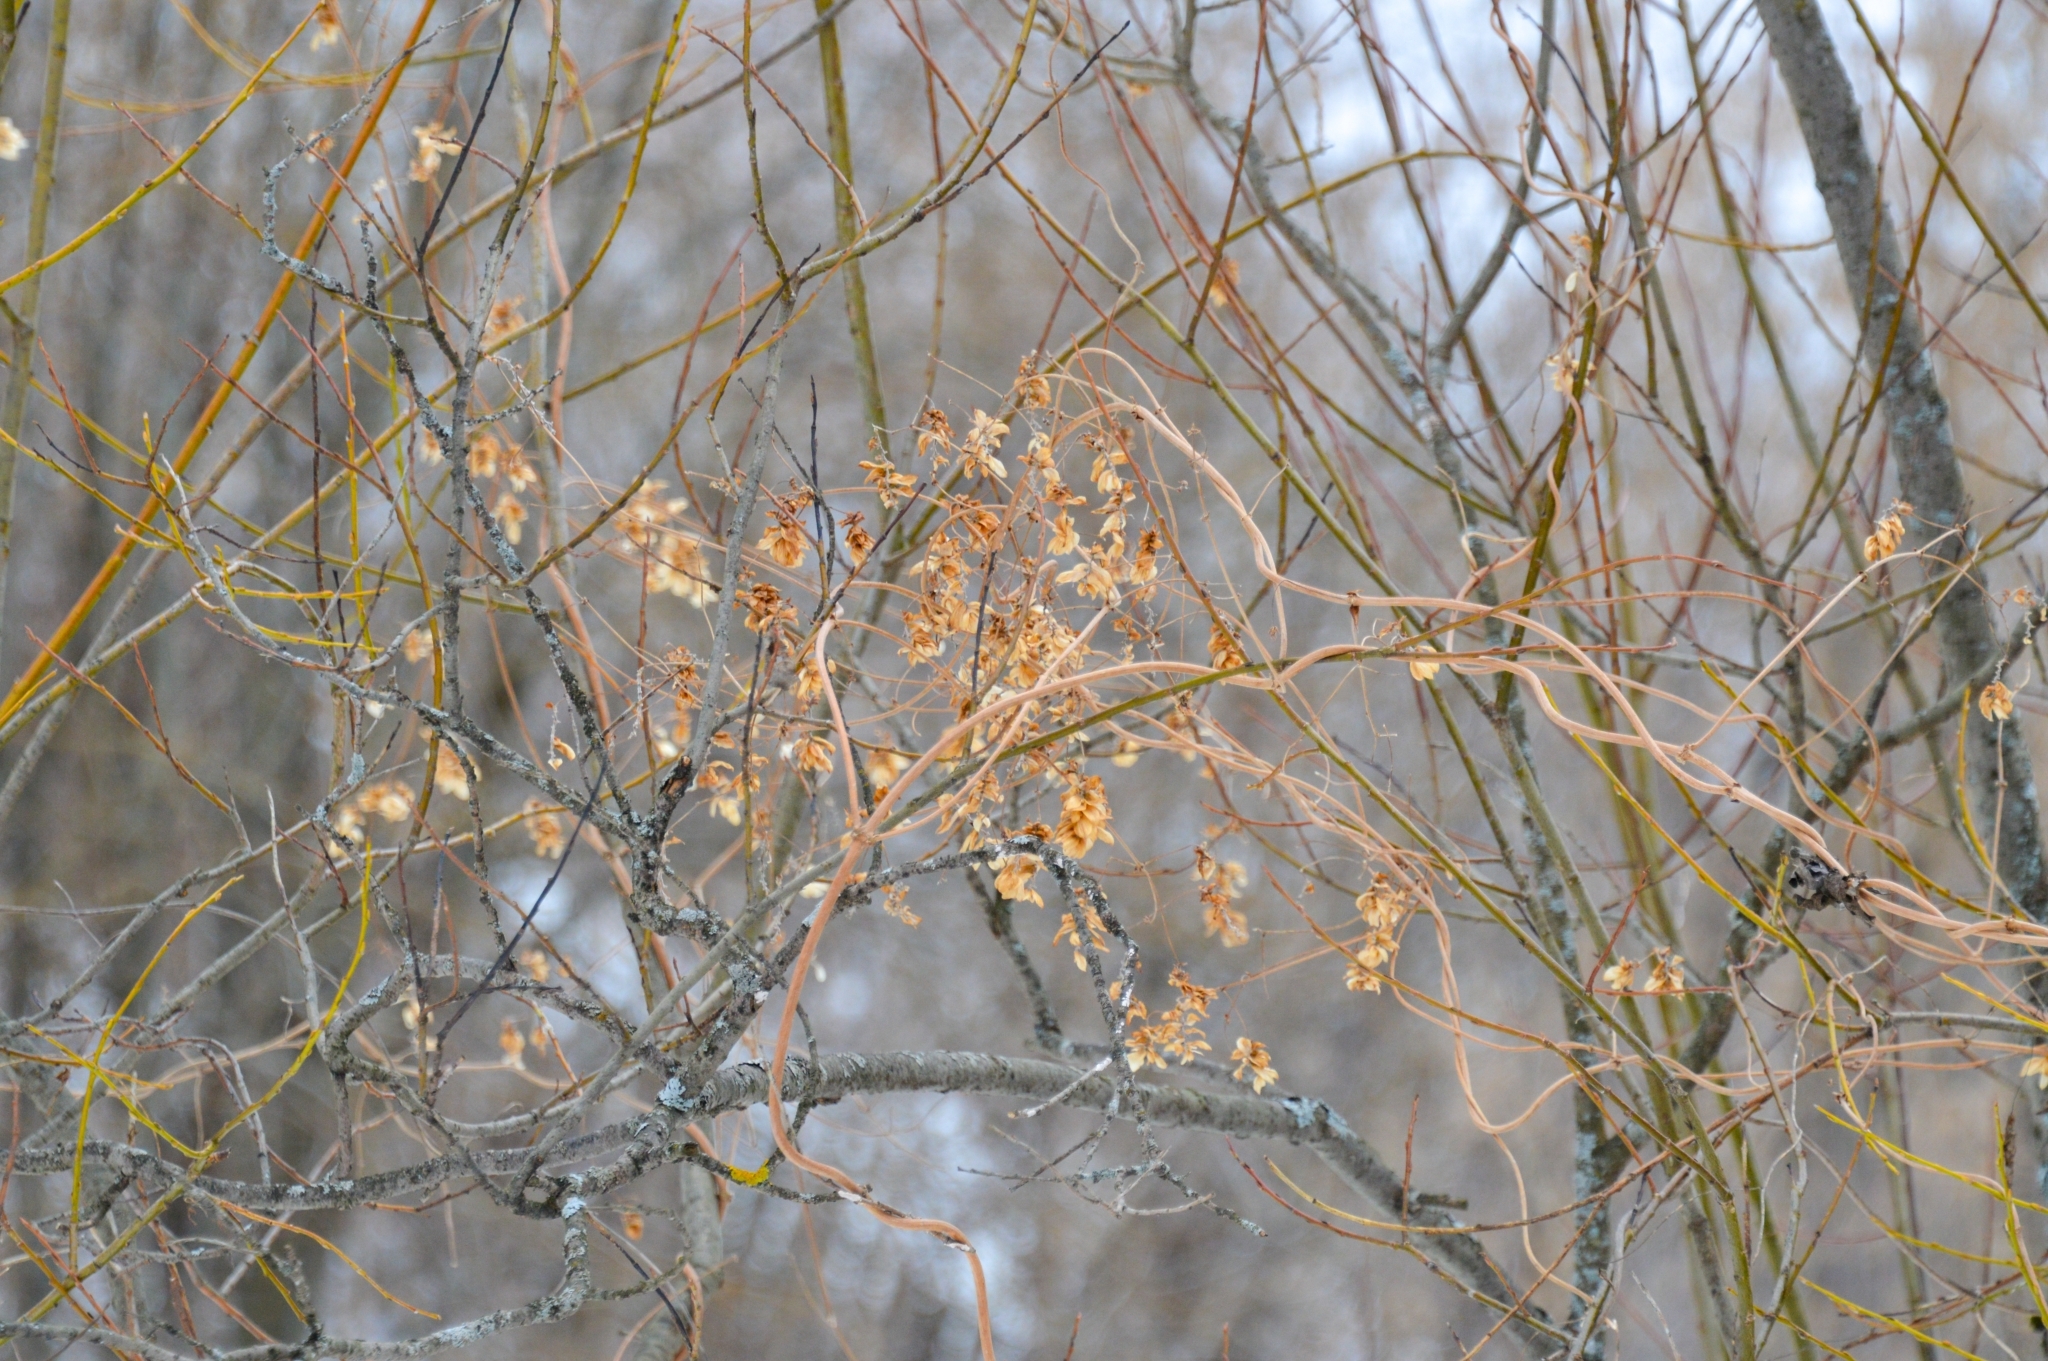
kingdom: Plantae
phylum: Tracheophyta
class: Magnoliopsida
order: Rosales
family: Cannabaceae
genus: Humulus
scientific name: Humulus lupulus
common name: Hop
